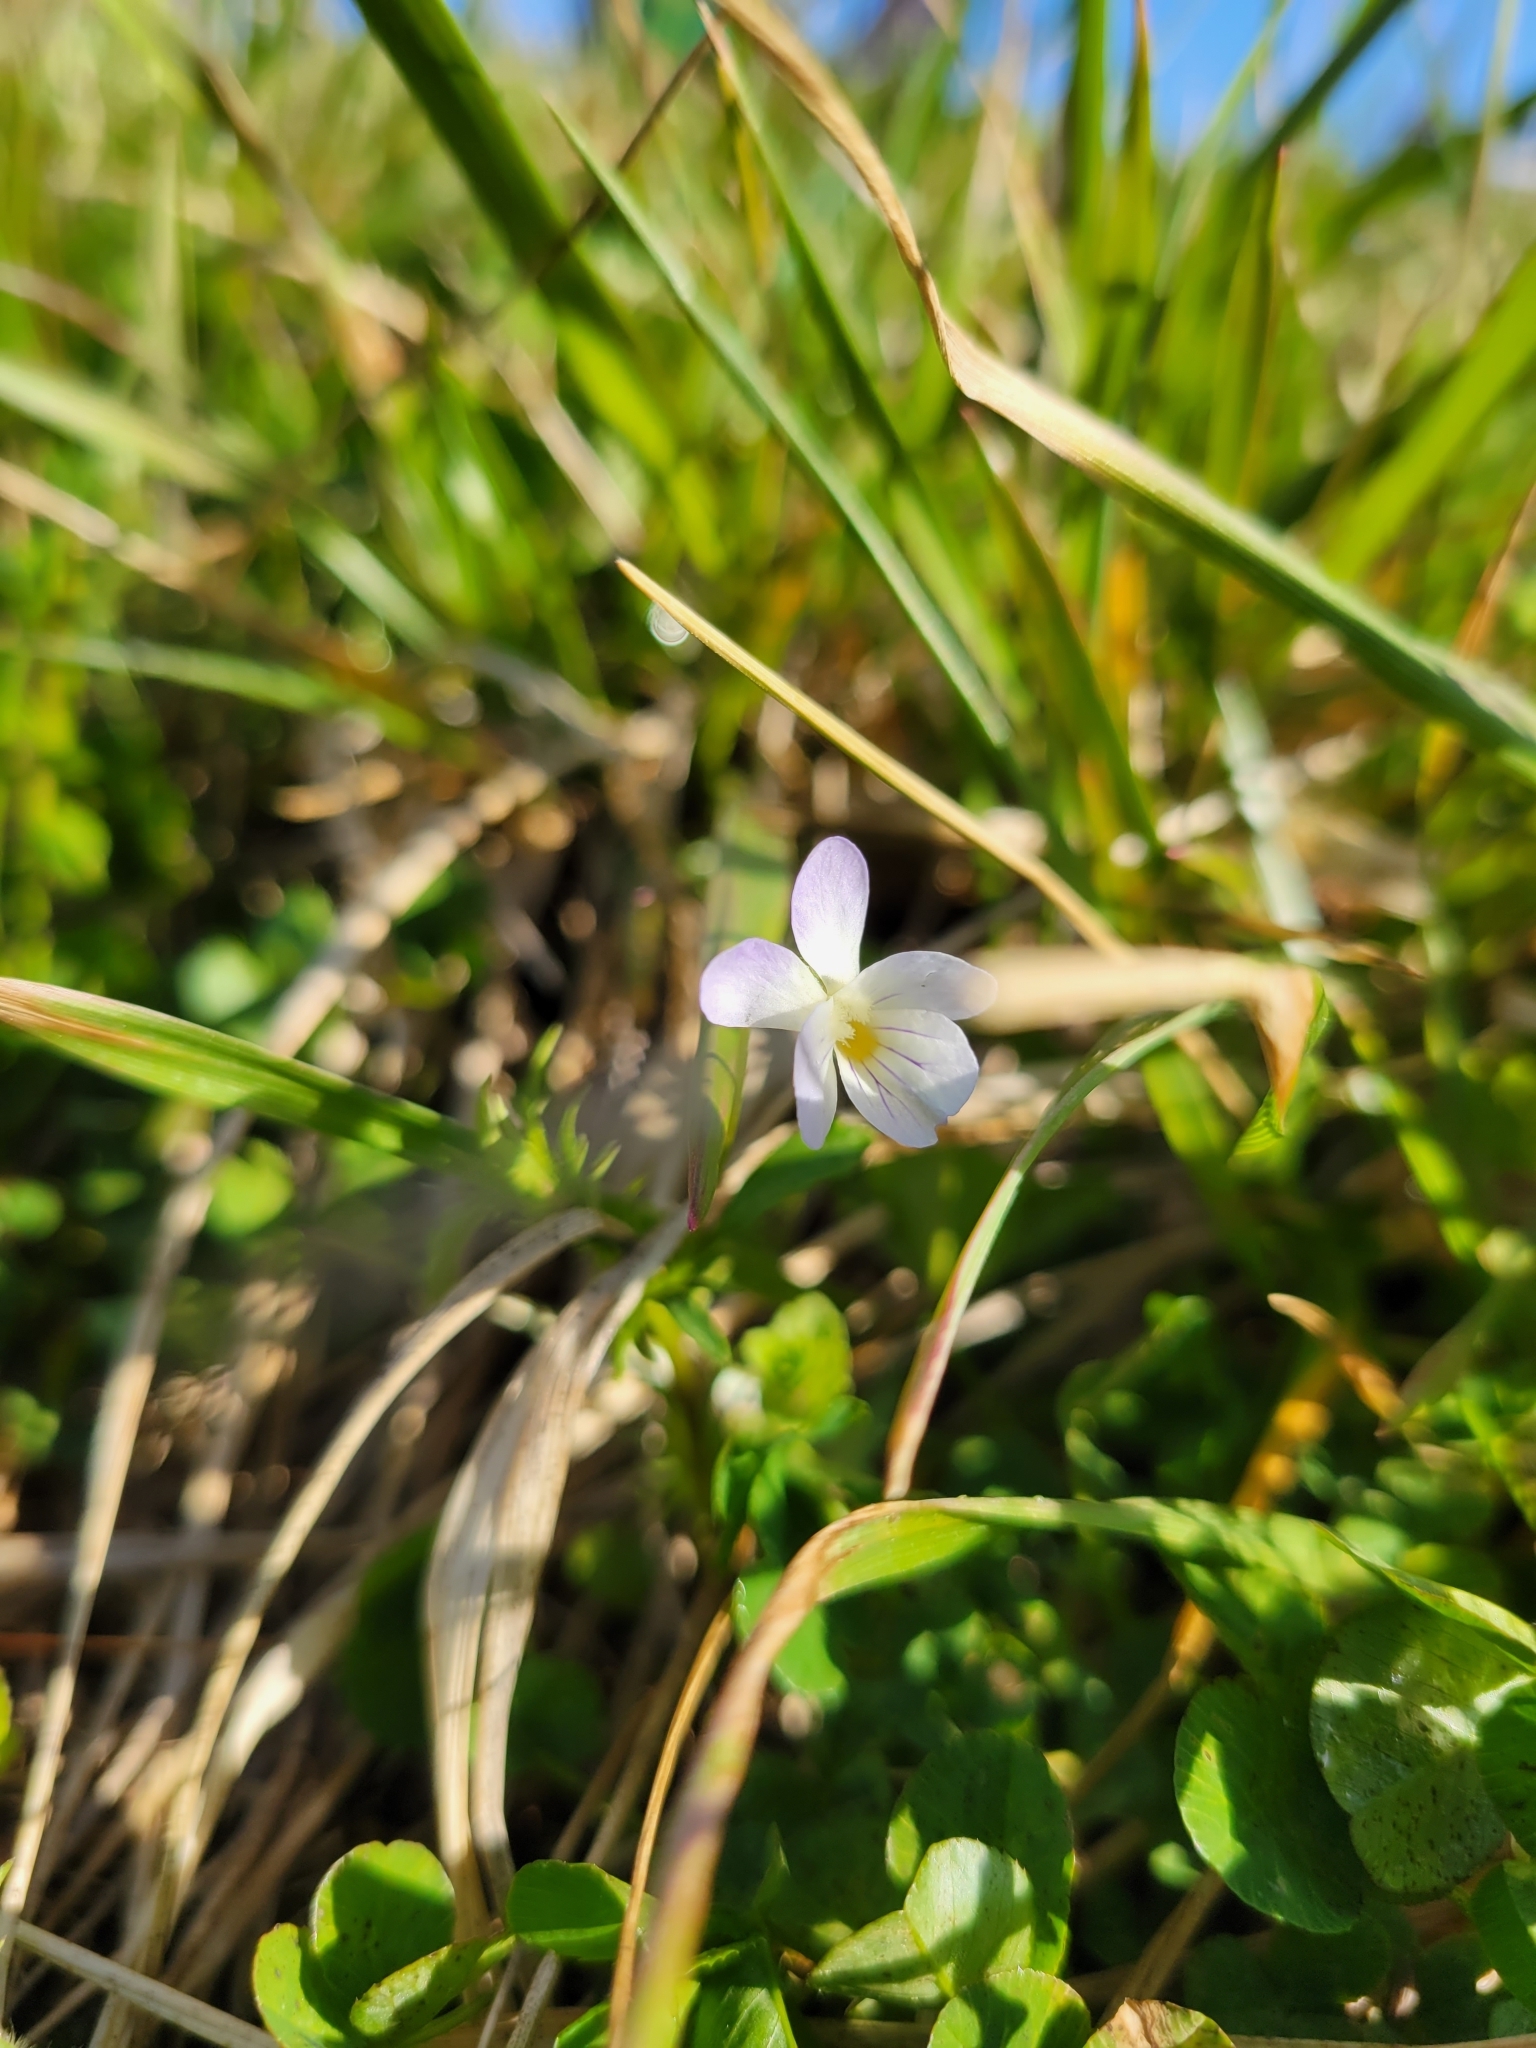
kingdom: Plantae
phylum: Tracheophyta
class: Magnoliopsida
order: Malpighiales
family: Violaceae
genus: Viola
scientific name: Viola rafinesquei
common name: American field pansy
